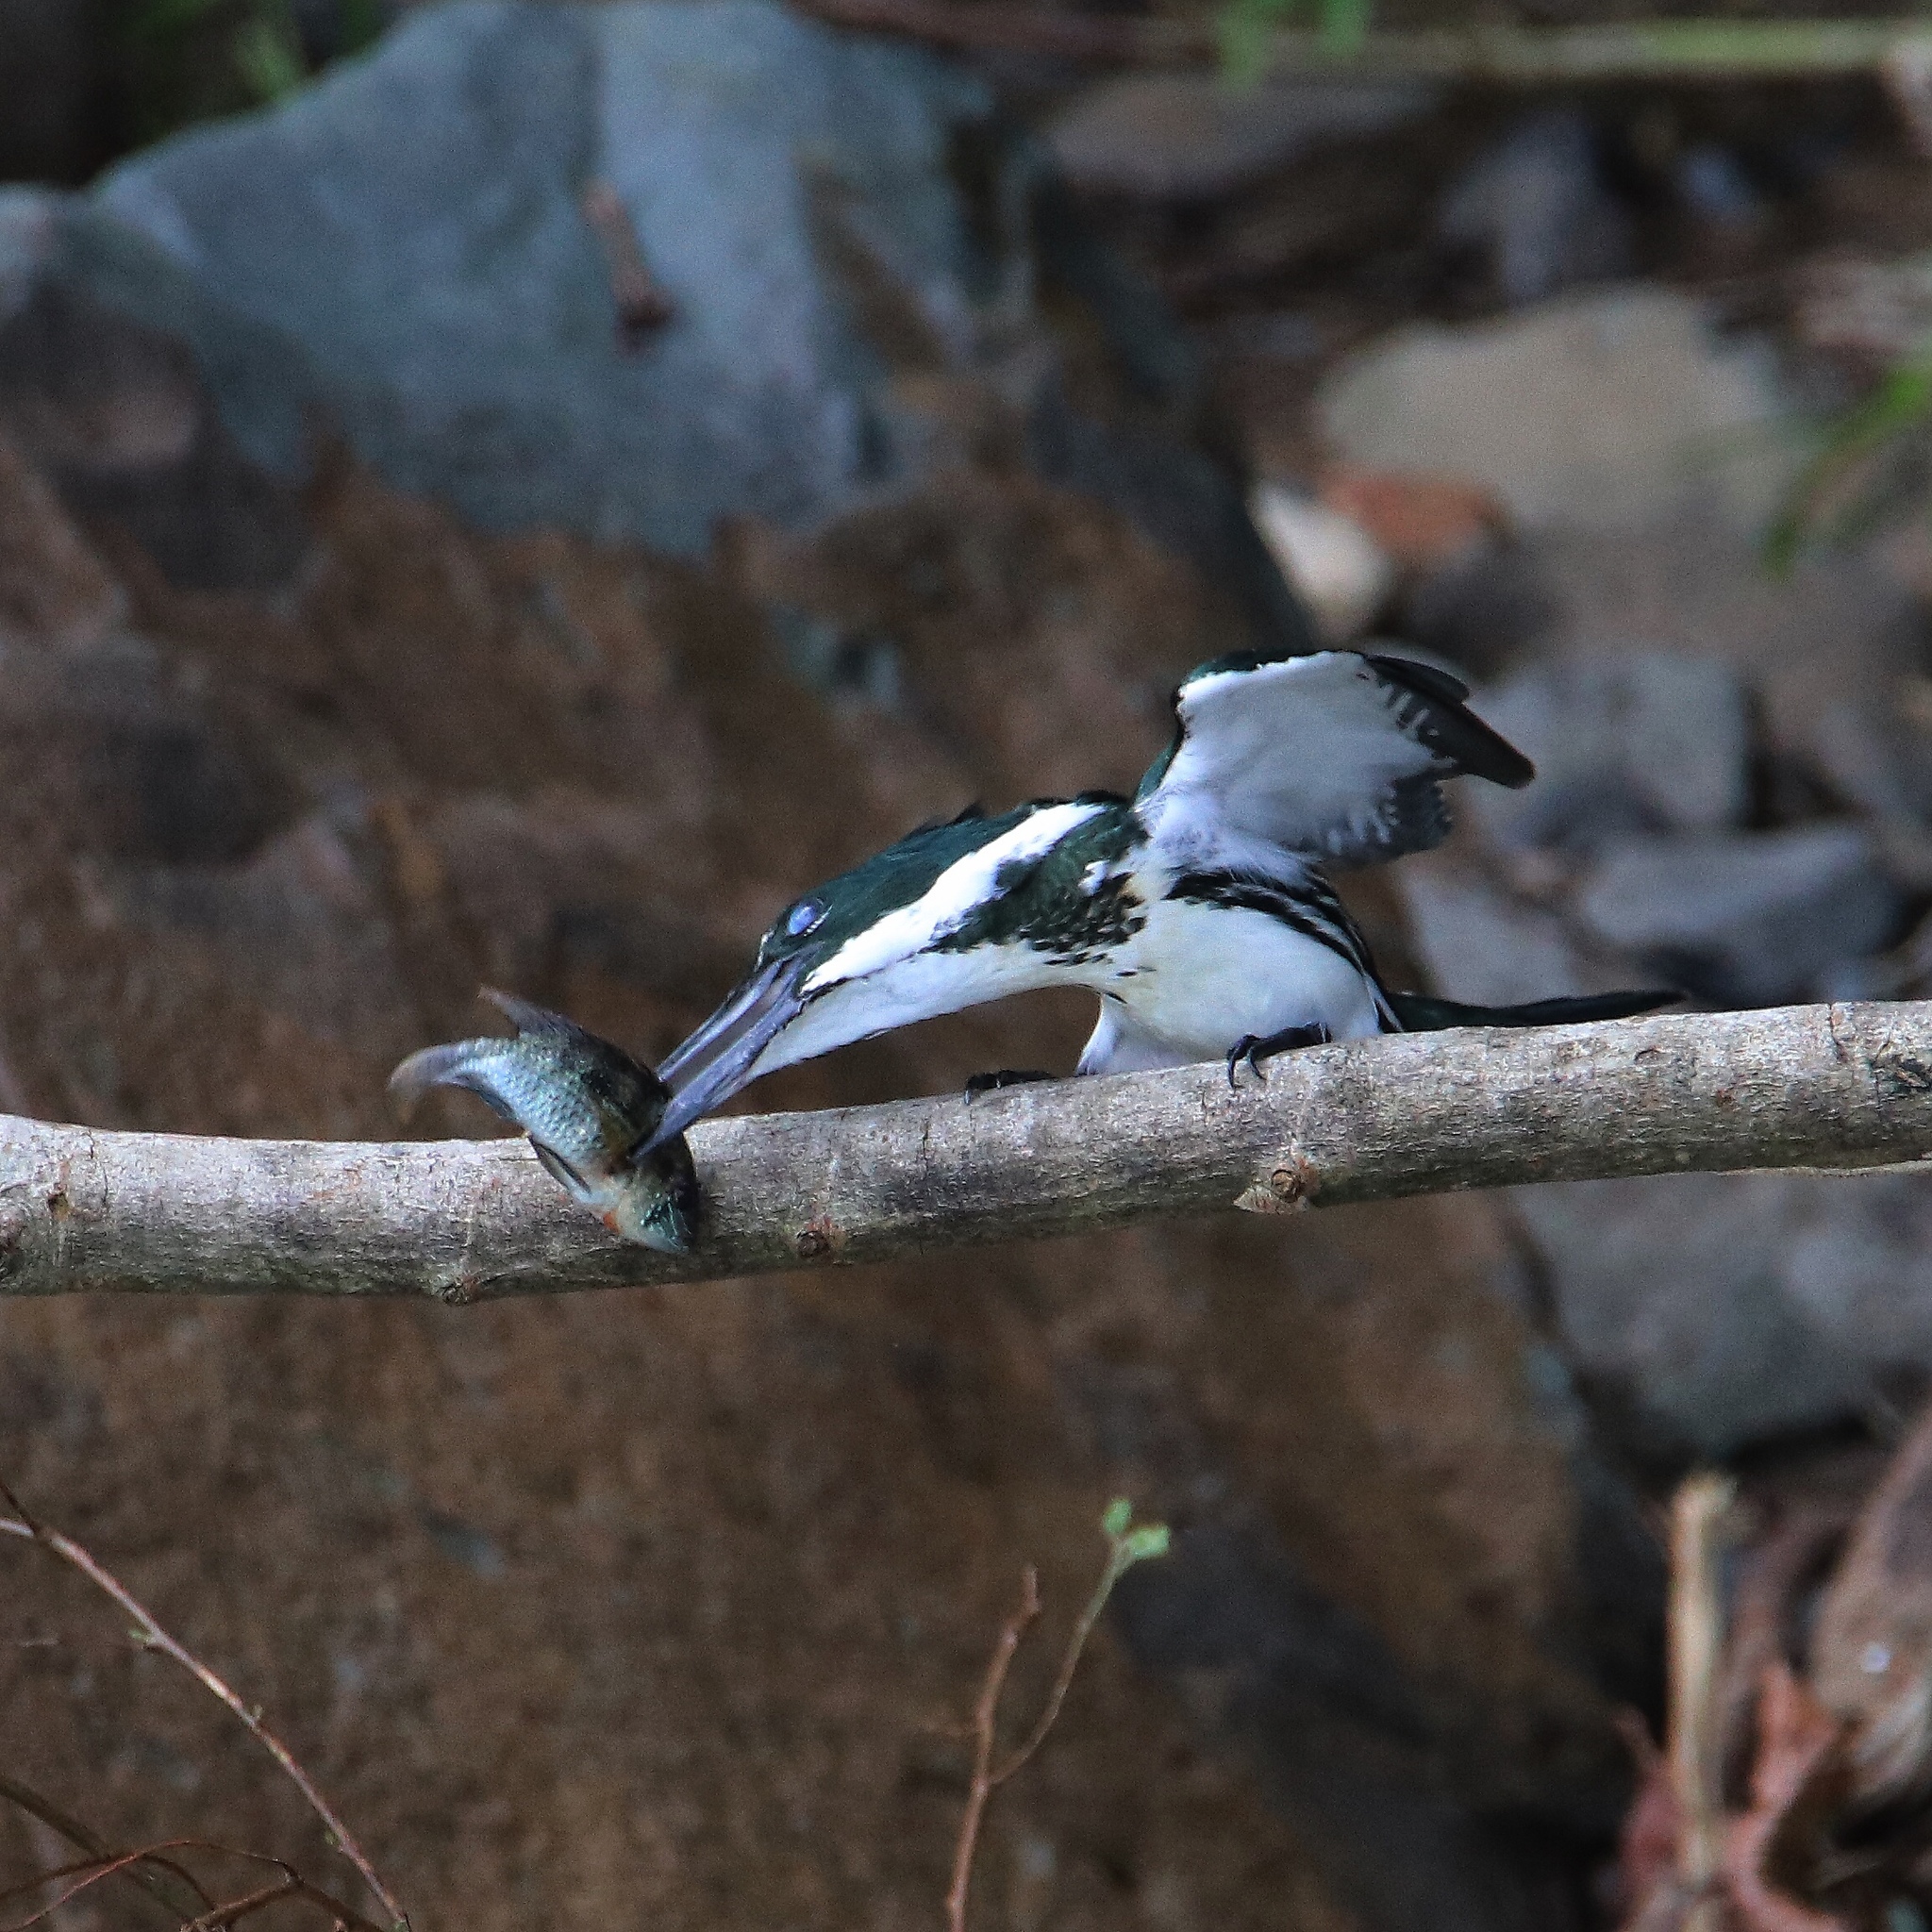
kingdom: Animalia
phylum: Chordata
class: Aves
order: Coraciiformes
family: Alcedinidae
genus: Chloroceryle
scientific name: Chloroceryle amazona
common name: Amazon kingfisher
